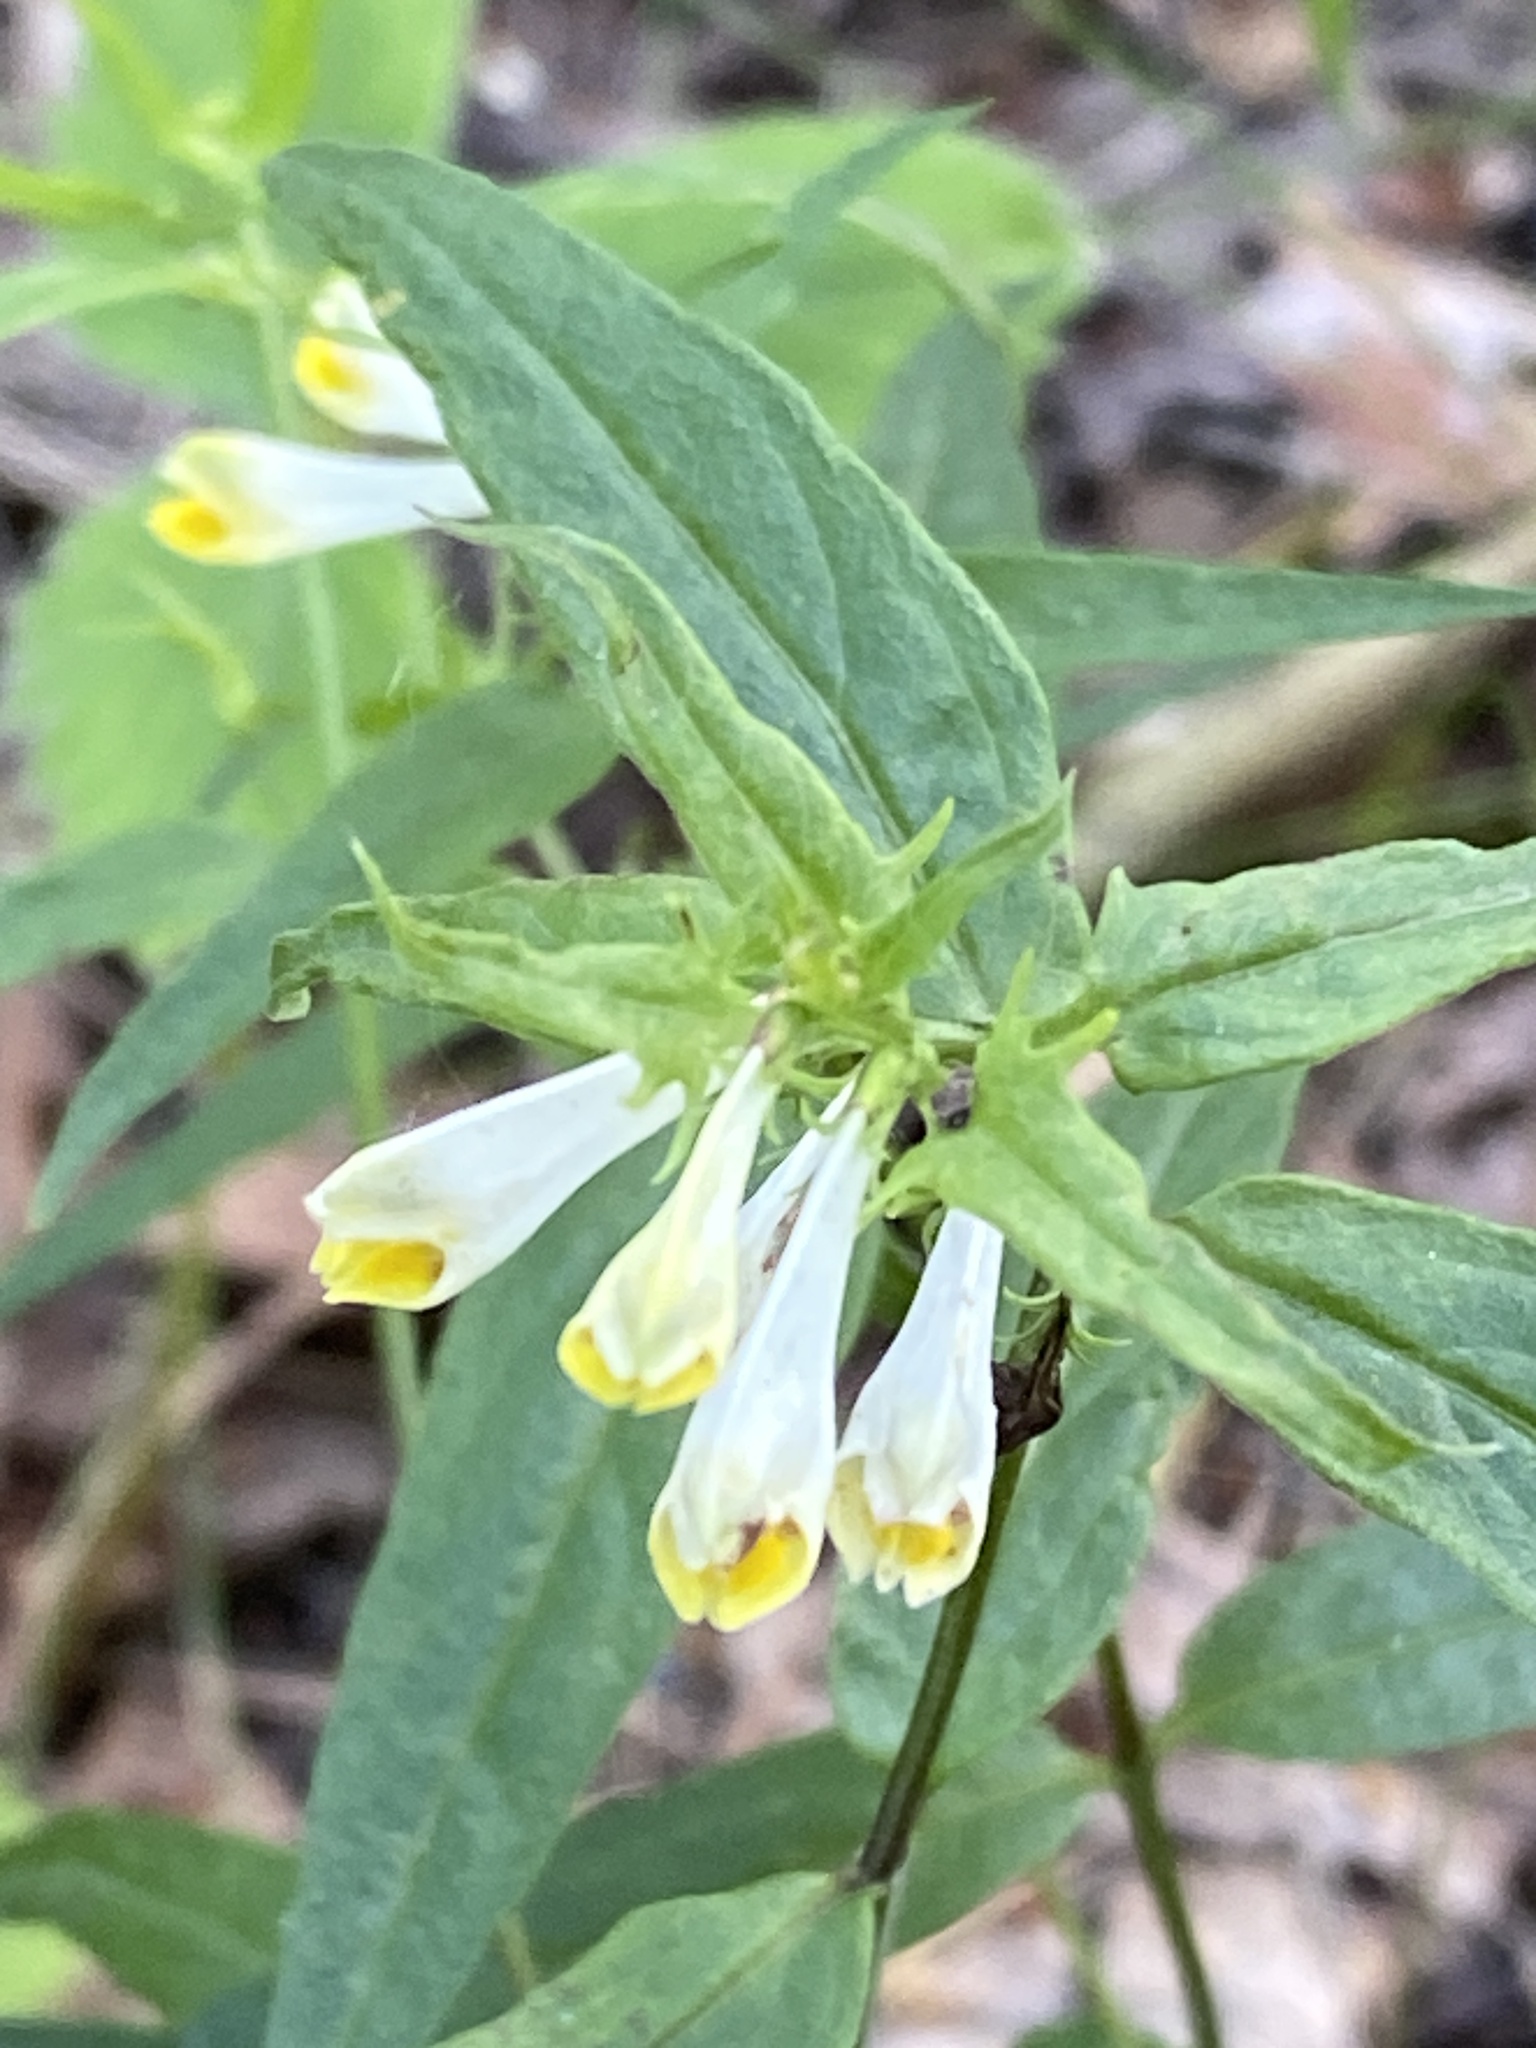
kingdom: Plantae
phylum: Tracheophyta
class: Magnoliopsida
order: Lamiales
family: Orobanchaceae
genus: Melampyrum
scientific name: Melampyrum pratense
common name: Common cow-wheat
